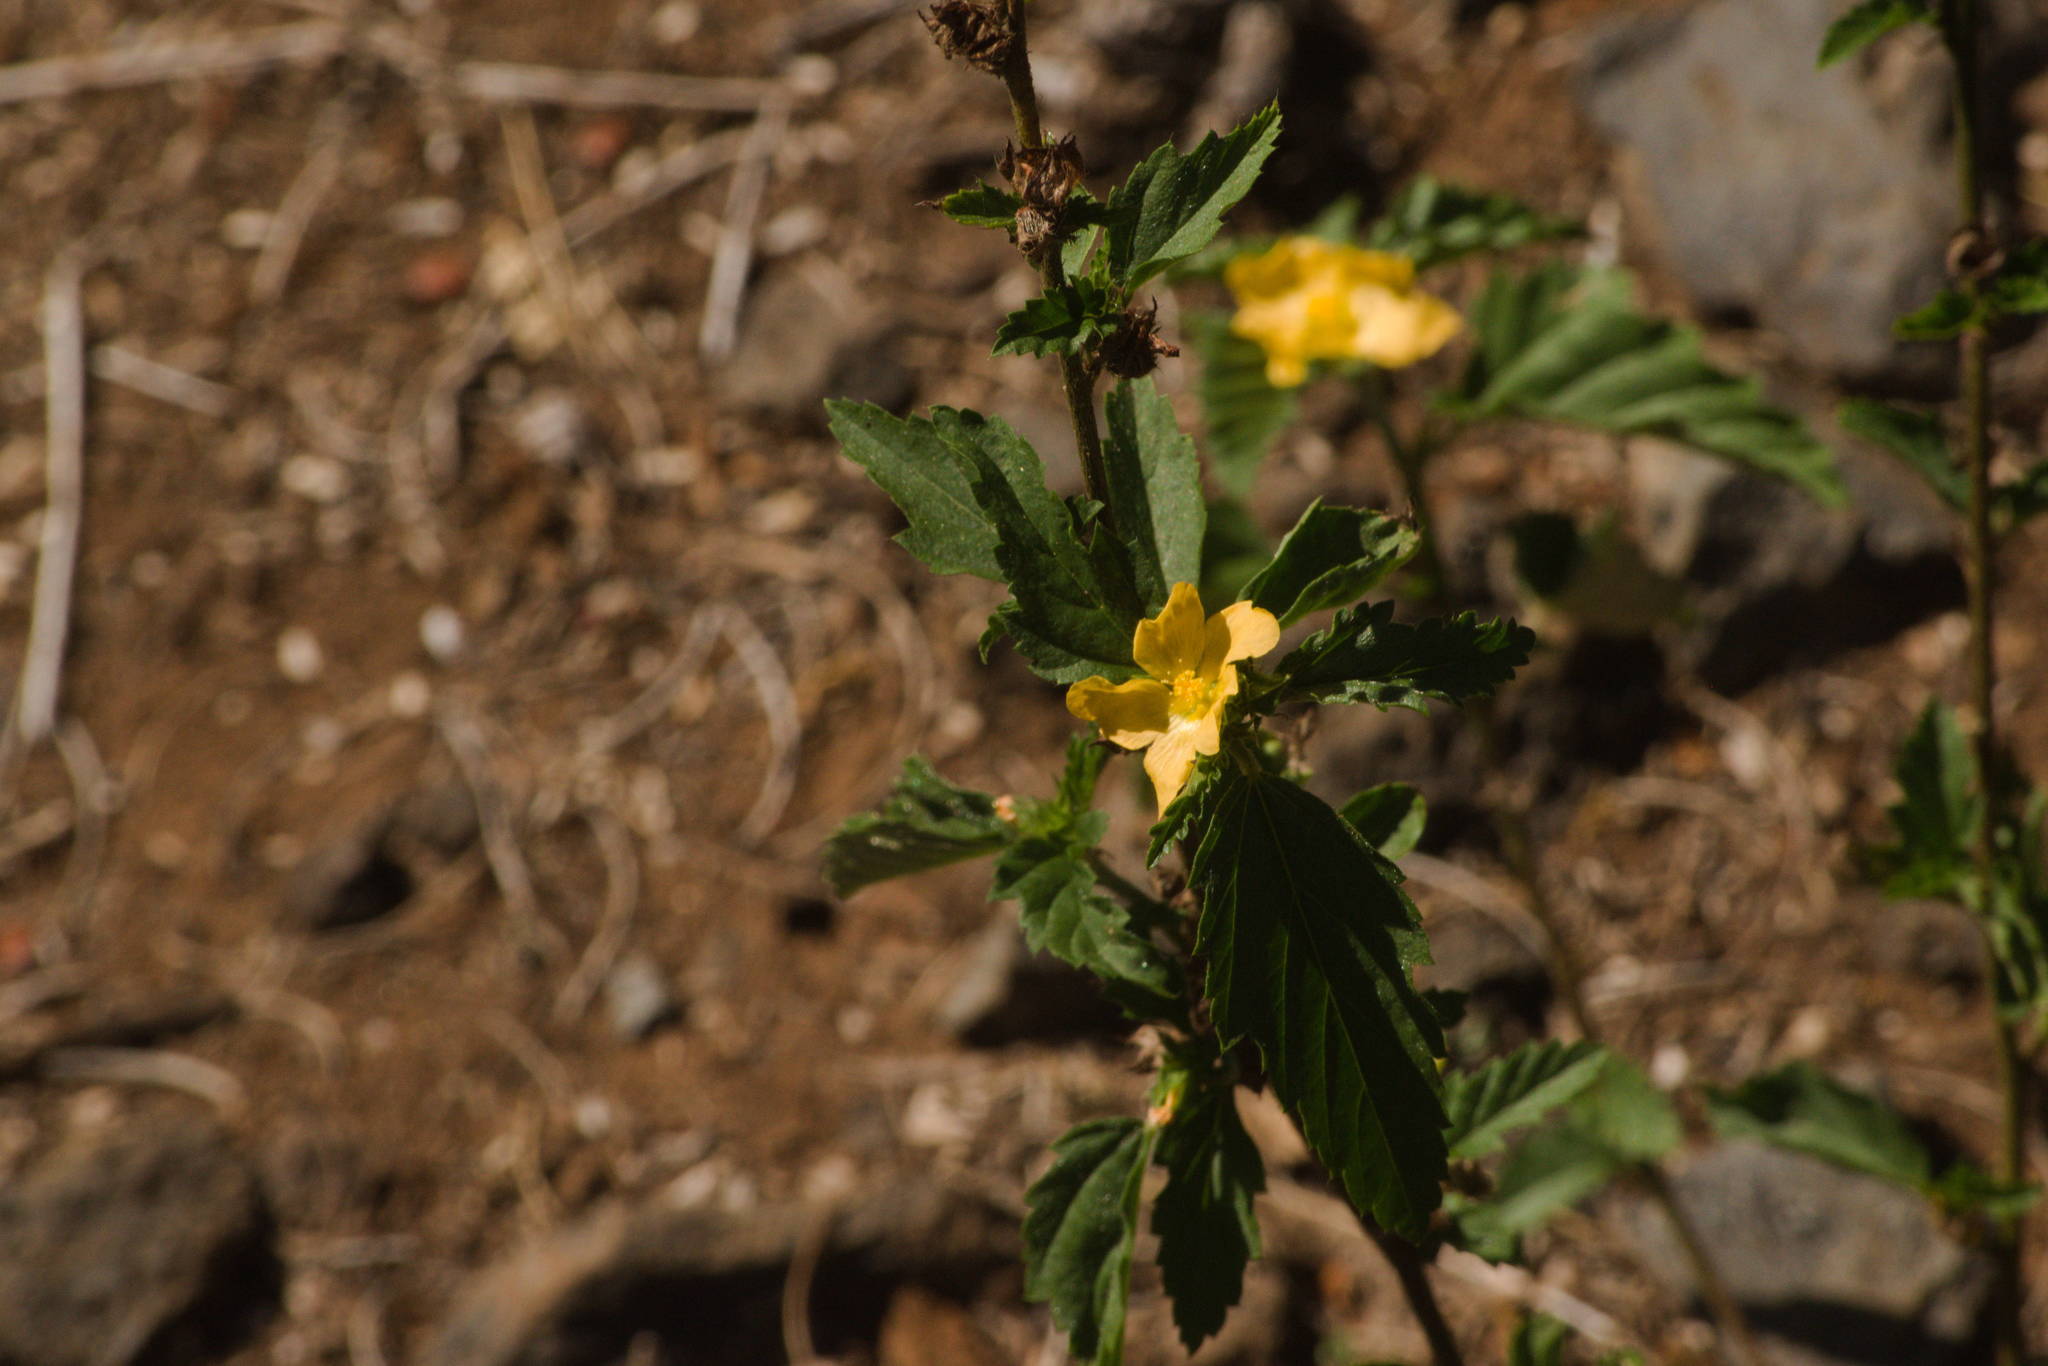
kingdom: Plantae
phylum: Tracheophyta
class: Magnoliopsida
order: Malvales
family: Malvaceae
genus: Malvastrum
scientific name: Malvastrum coromandelianum
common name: Threelobe false mallow
